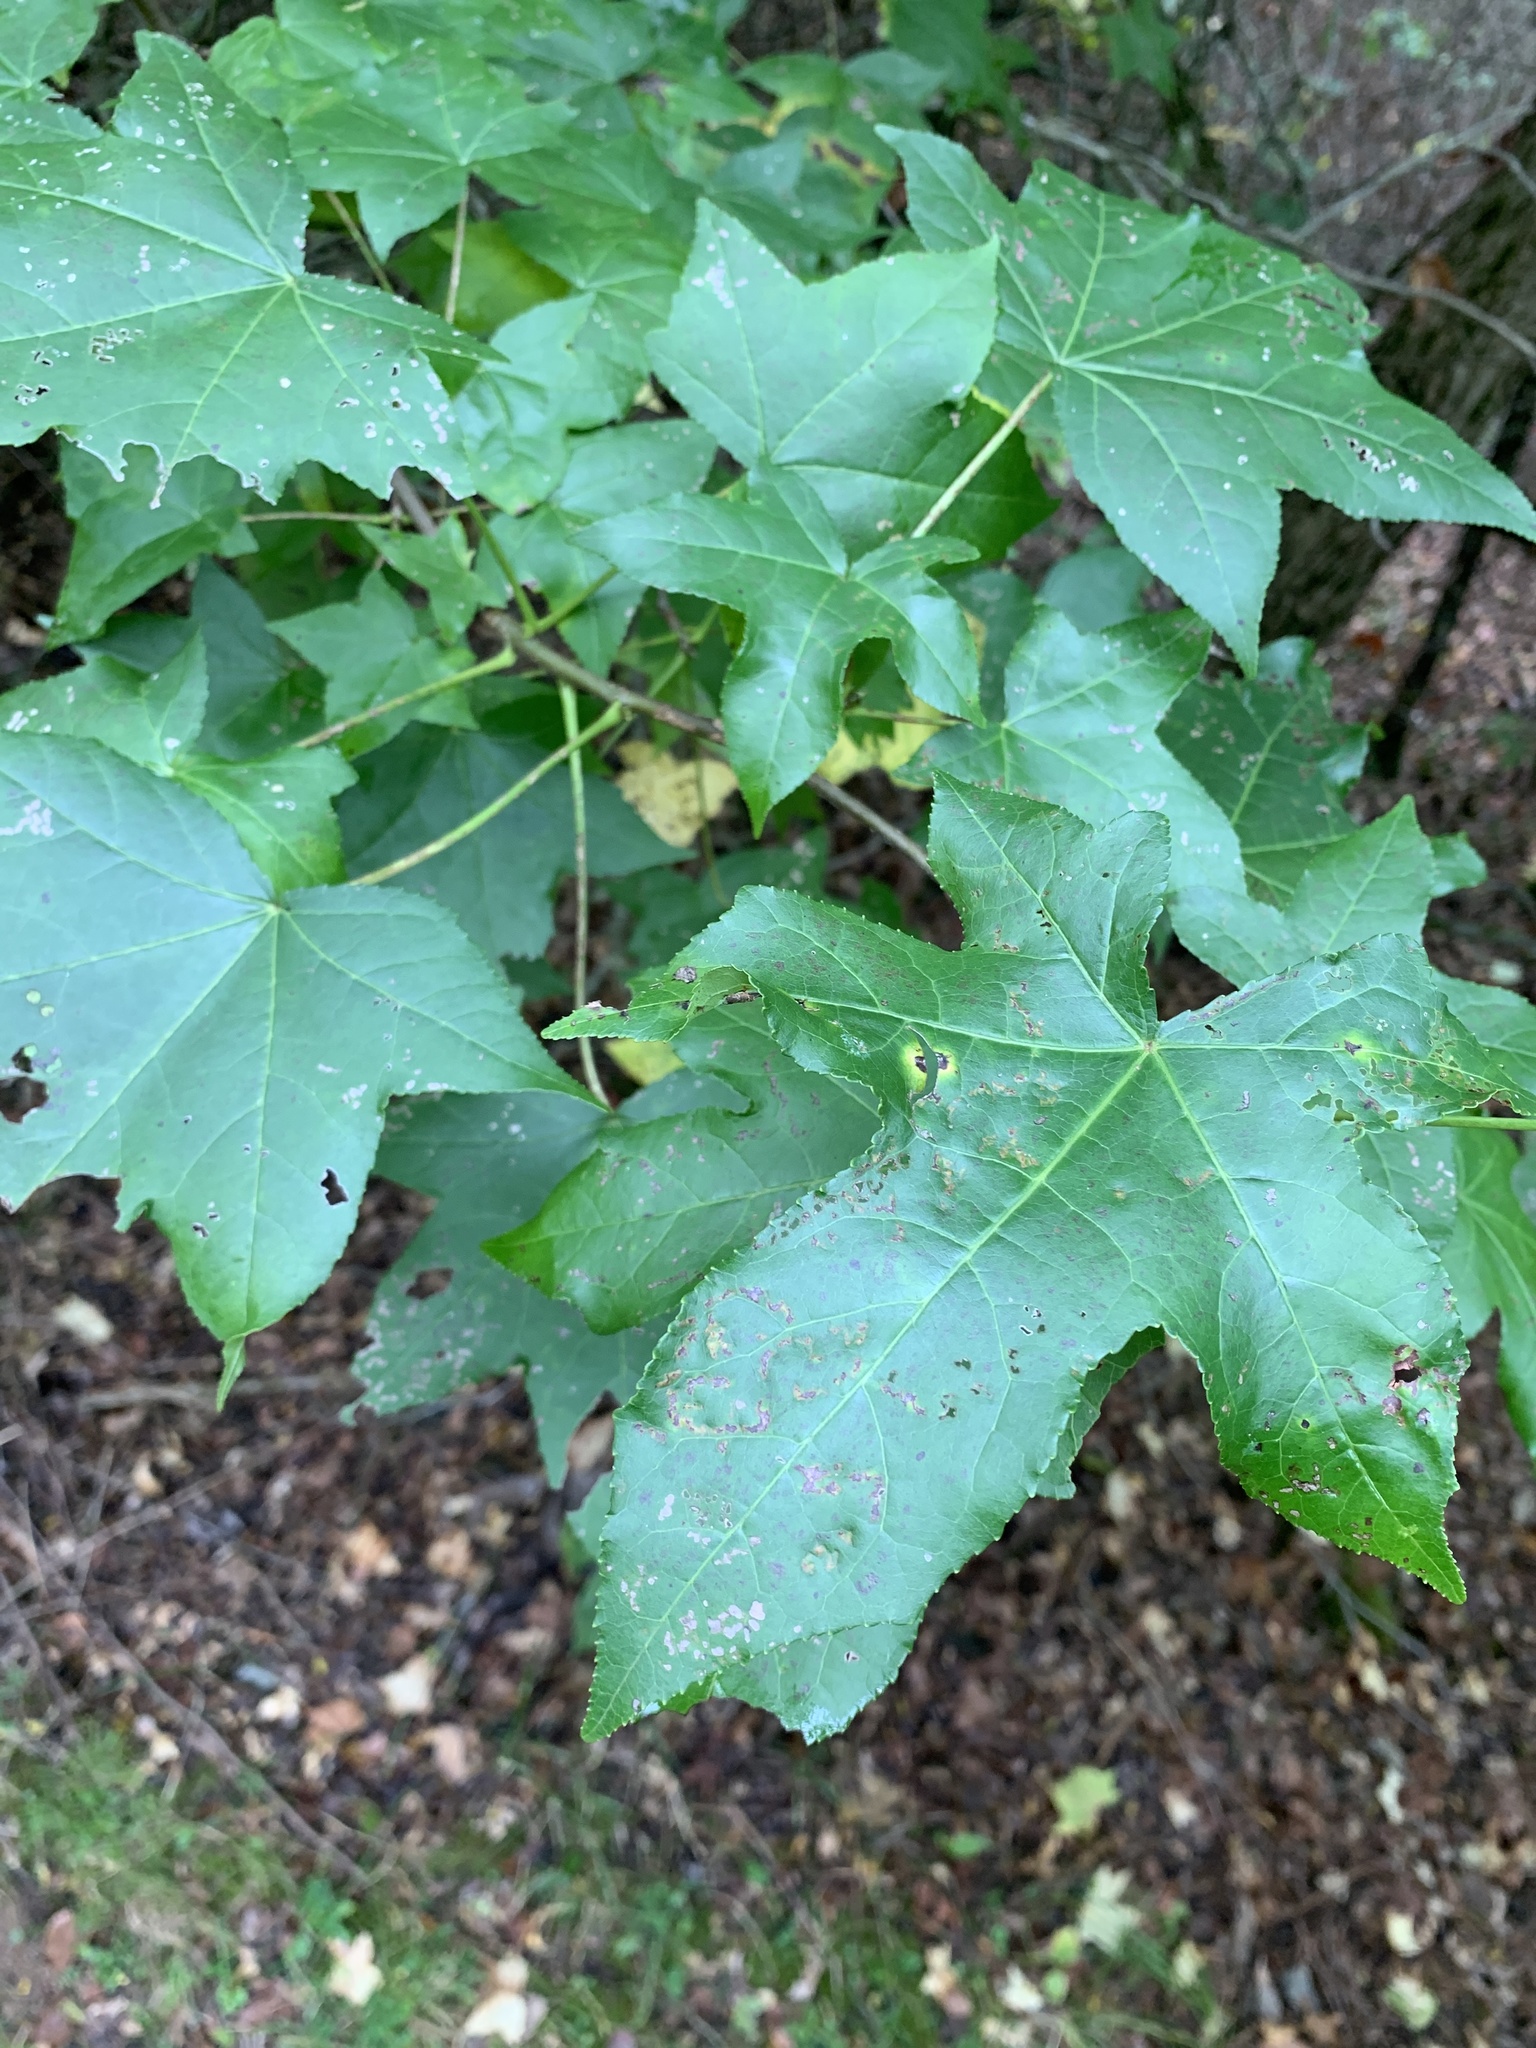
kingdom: Plantae
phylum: Tracheophyta
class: Magnoliopsida
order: Saxifragales
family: Altingiaceae
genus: Liquidambar
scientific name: Liquidambar styraciflua
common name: Sweet gum
